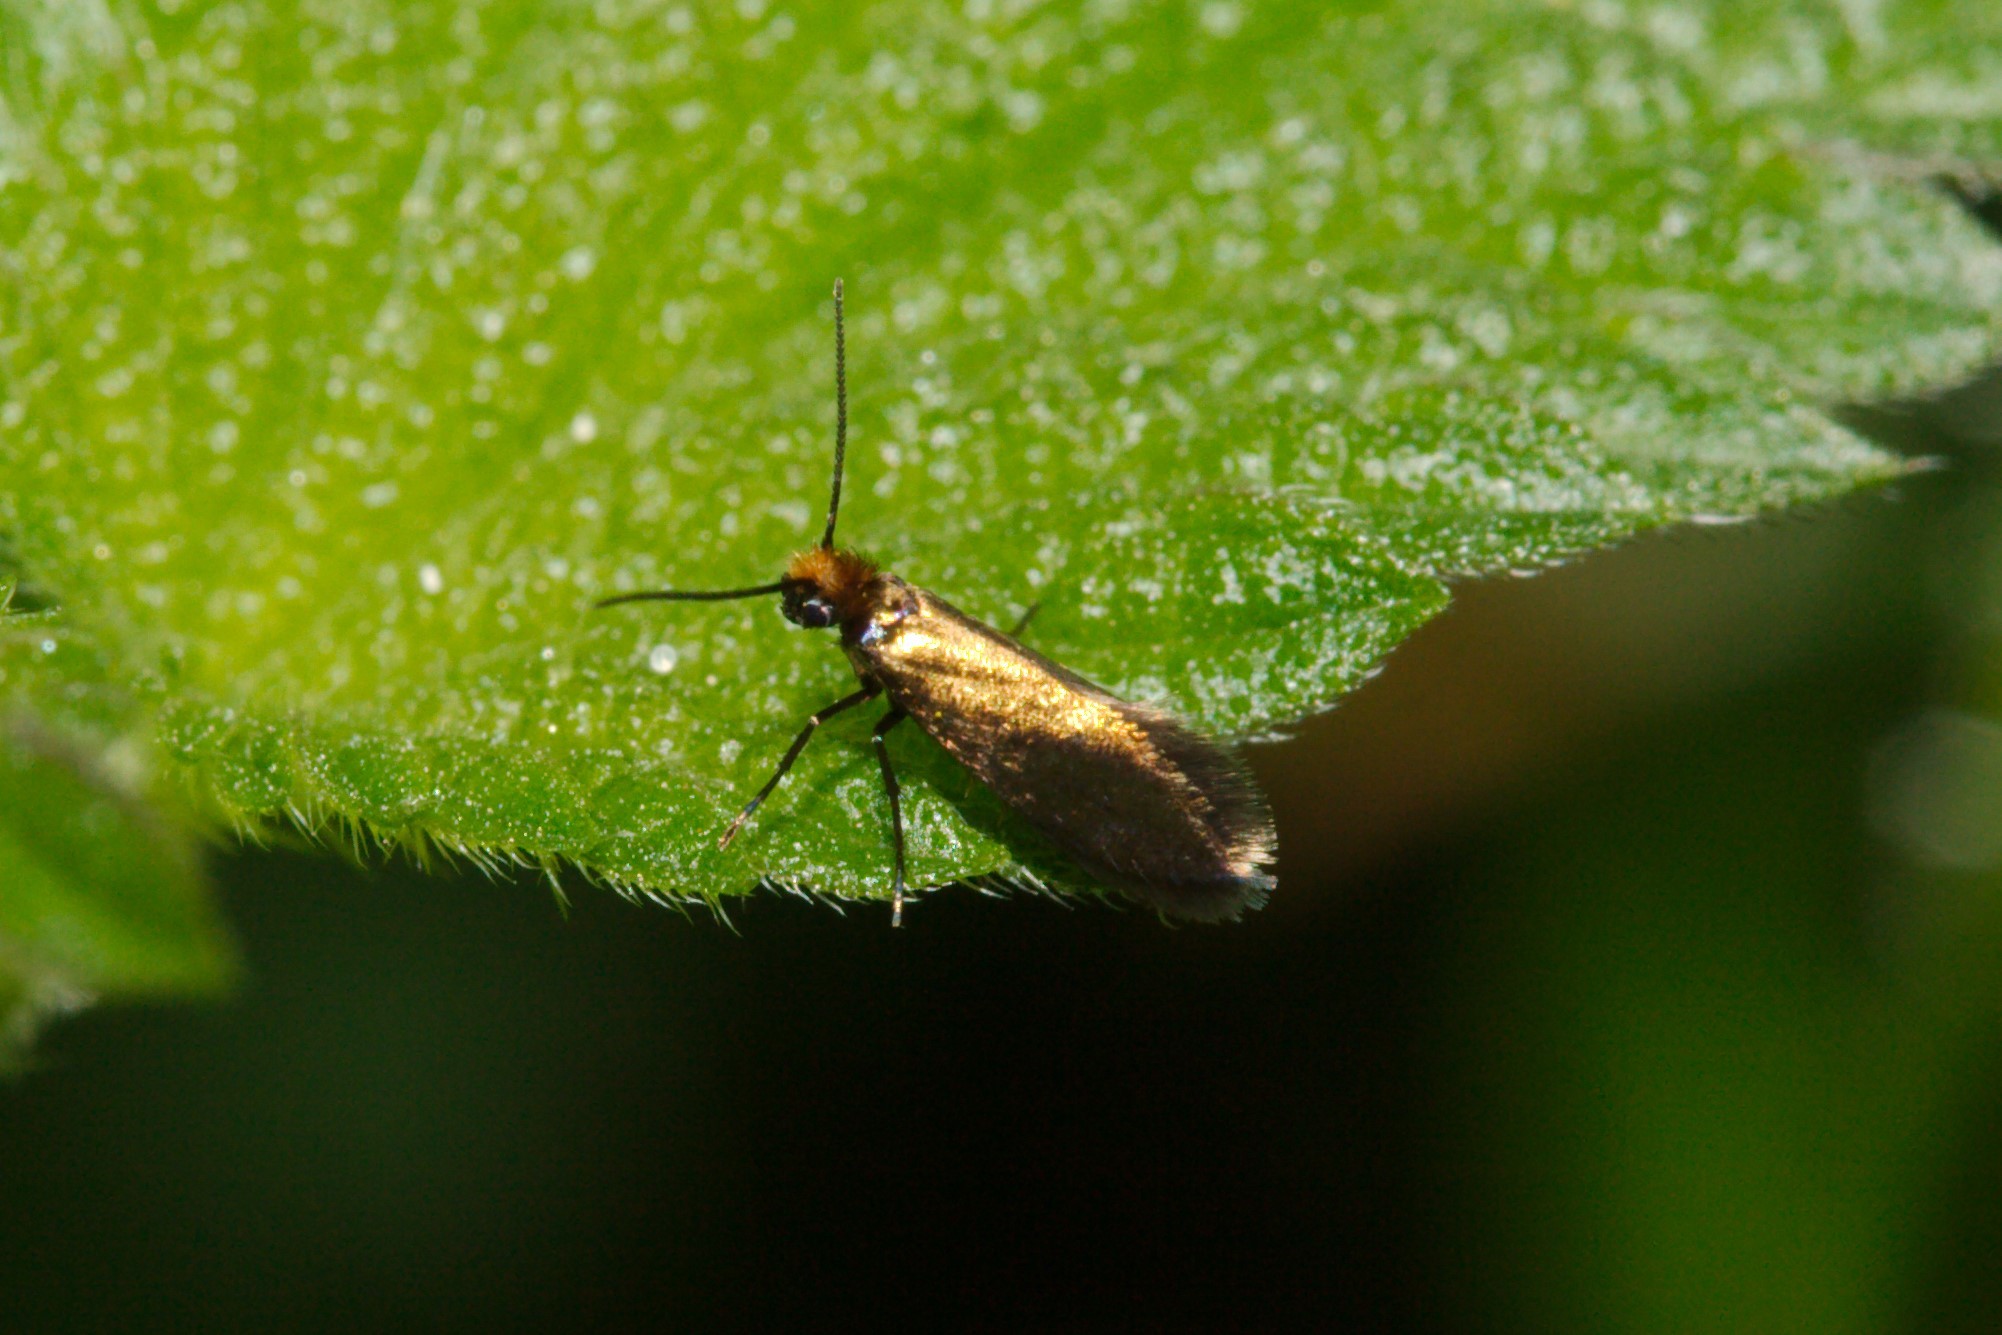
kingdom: Animalia
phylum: Arthropoda
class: Insecta
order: Lepidoptera
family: Micropterigidae
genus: Micropterix
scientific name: Micropterix aruncella
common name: White-barred gold
